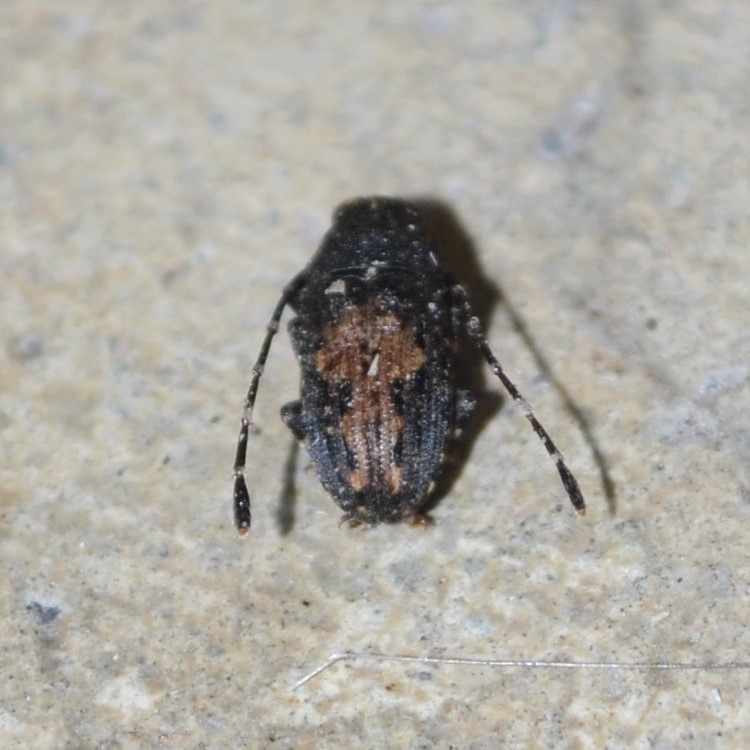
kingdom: Animalia
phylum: Arthropoda
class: Insecta
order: Coleoptera
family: Anthribidae
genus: Piesocorynus
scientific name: Piesocorynus plagifer
